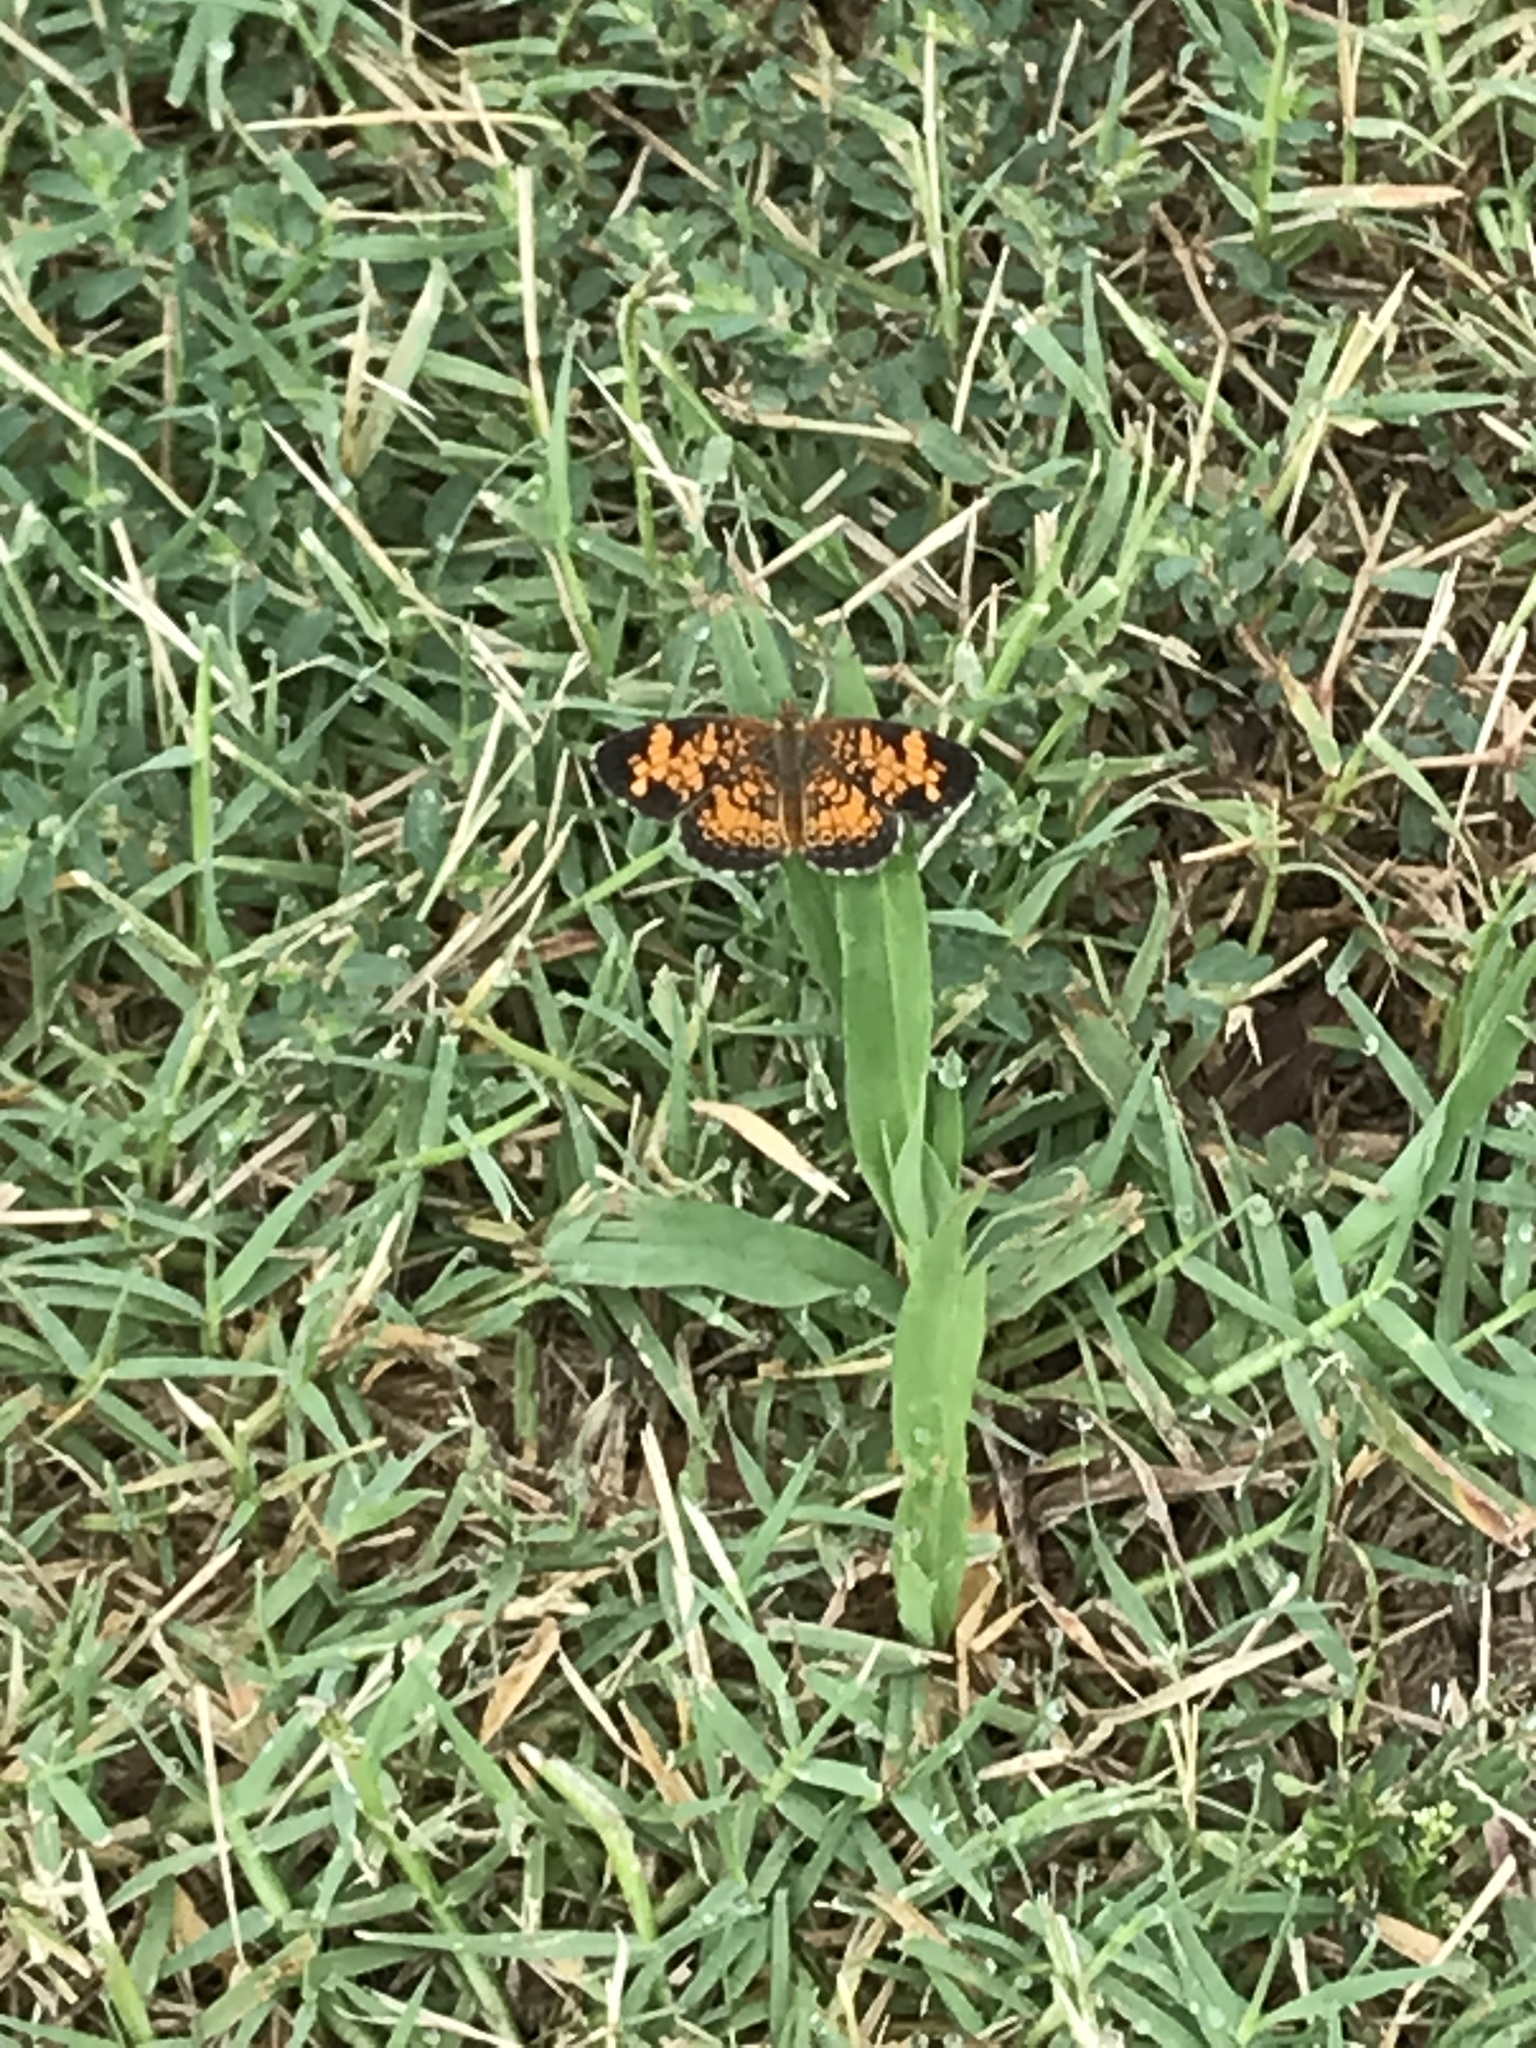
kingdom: Animalia
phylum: Arthropoda
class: Insecta
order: Lepidoptera
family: Nymphalidae
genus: Phyciodes
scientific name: Phyciodes tharos
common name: Pearl crescent
